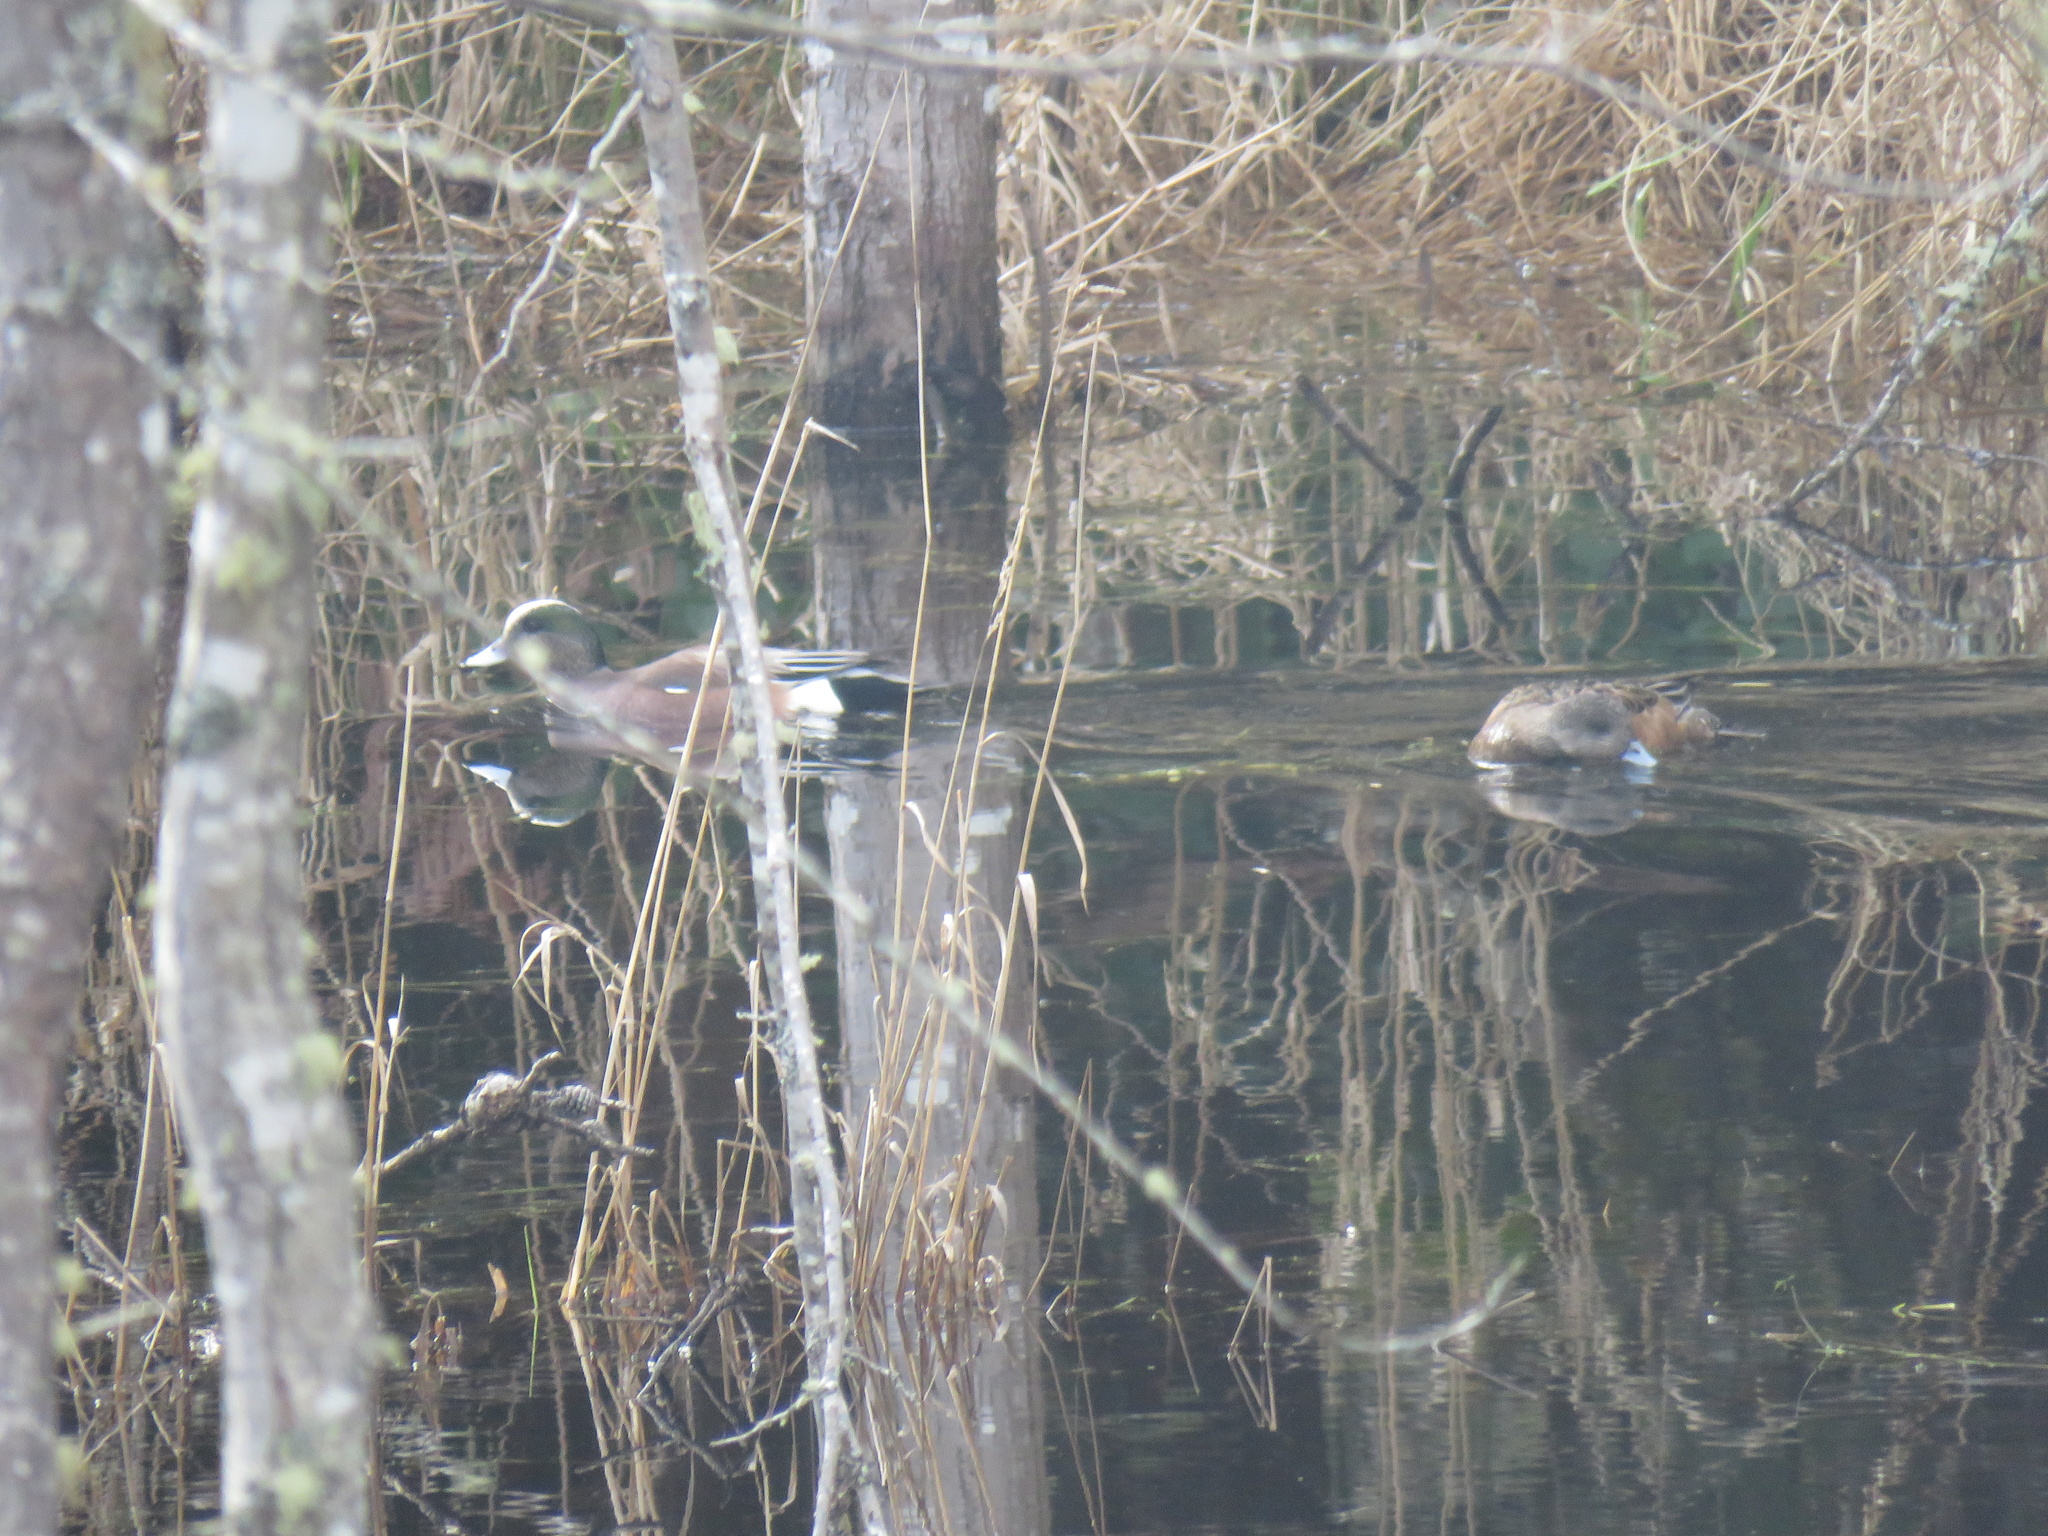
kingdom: Animalia
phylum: Chordata
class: Aves
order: Anseriformes
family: Anatidae
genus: Mareca
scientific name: Mareca americana
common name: American wigeon
